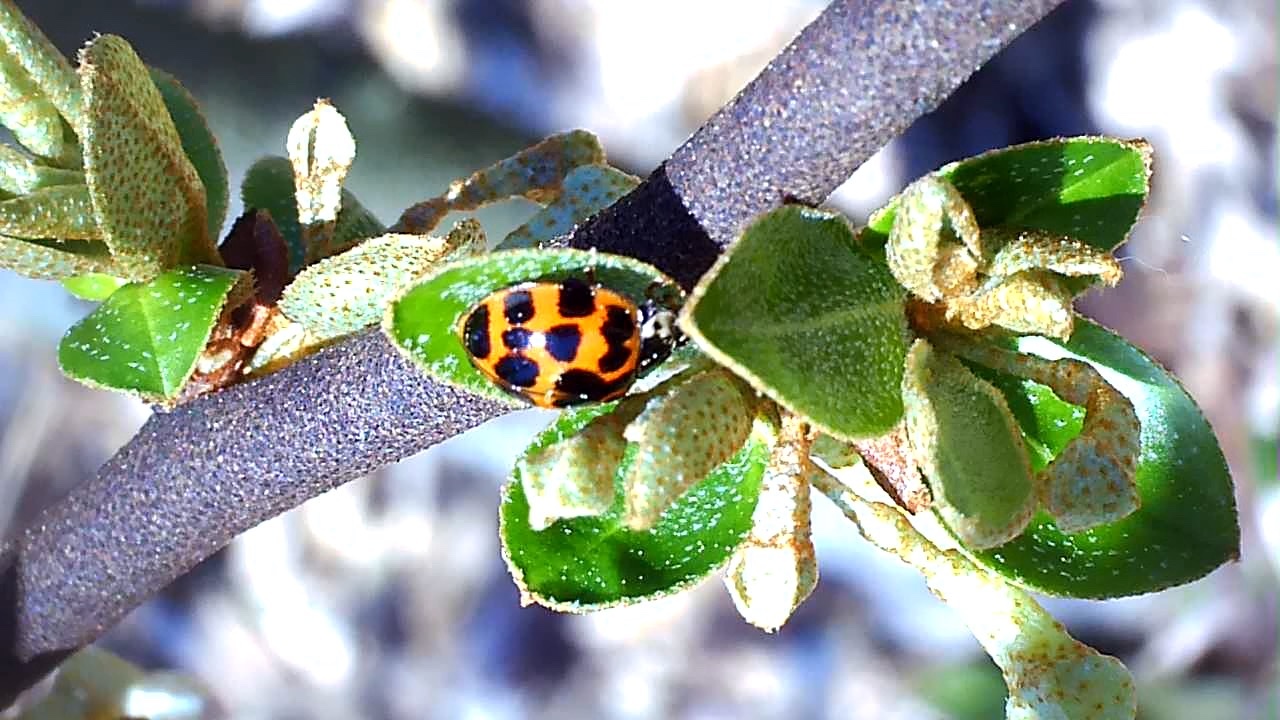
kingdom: Animalia
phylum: Arthropoda
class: Insecta
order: Coleoptera
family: Coccinellidae
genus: Harmonia
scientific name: Harmonia axyridis
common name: Harlequin ladybird
